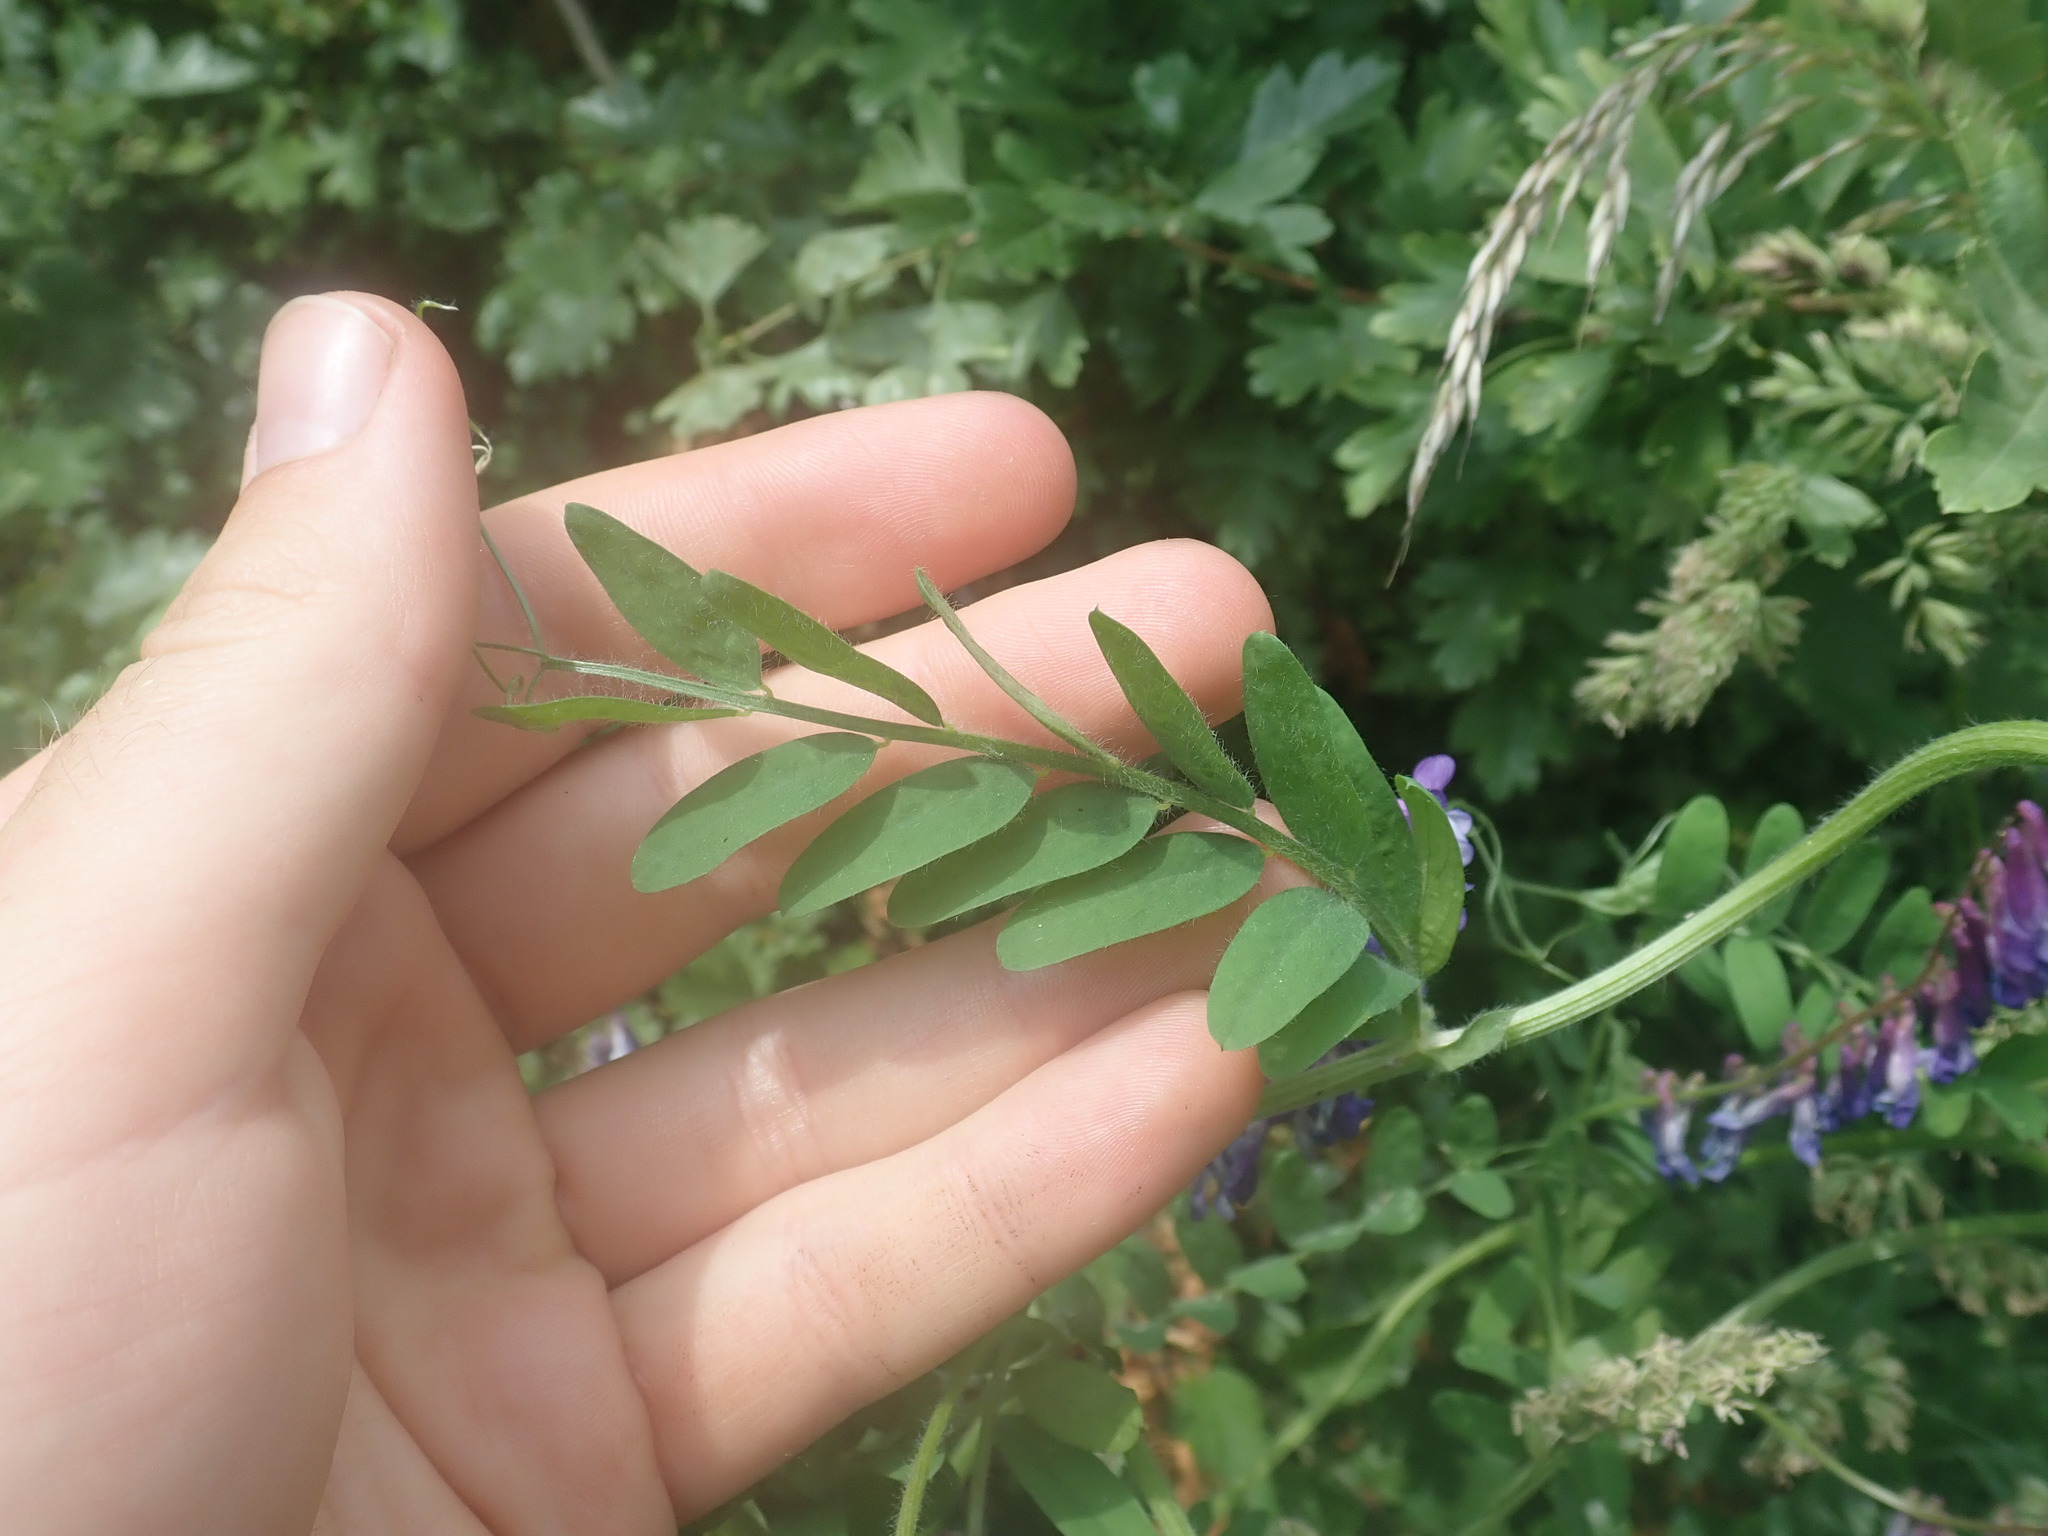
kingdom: Plantae
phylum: Tracheophyta
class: Magnoliopsida
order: Fabales
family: Fabaceae
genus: Vicia
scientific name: Vicia villosa
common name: Fodder vetch
